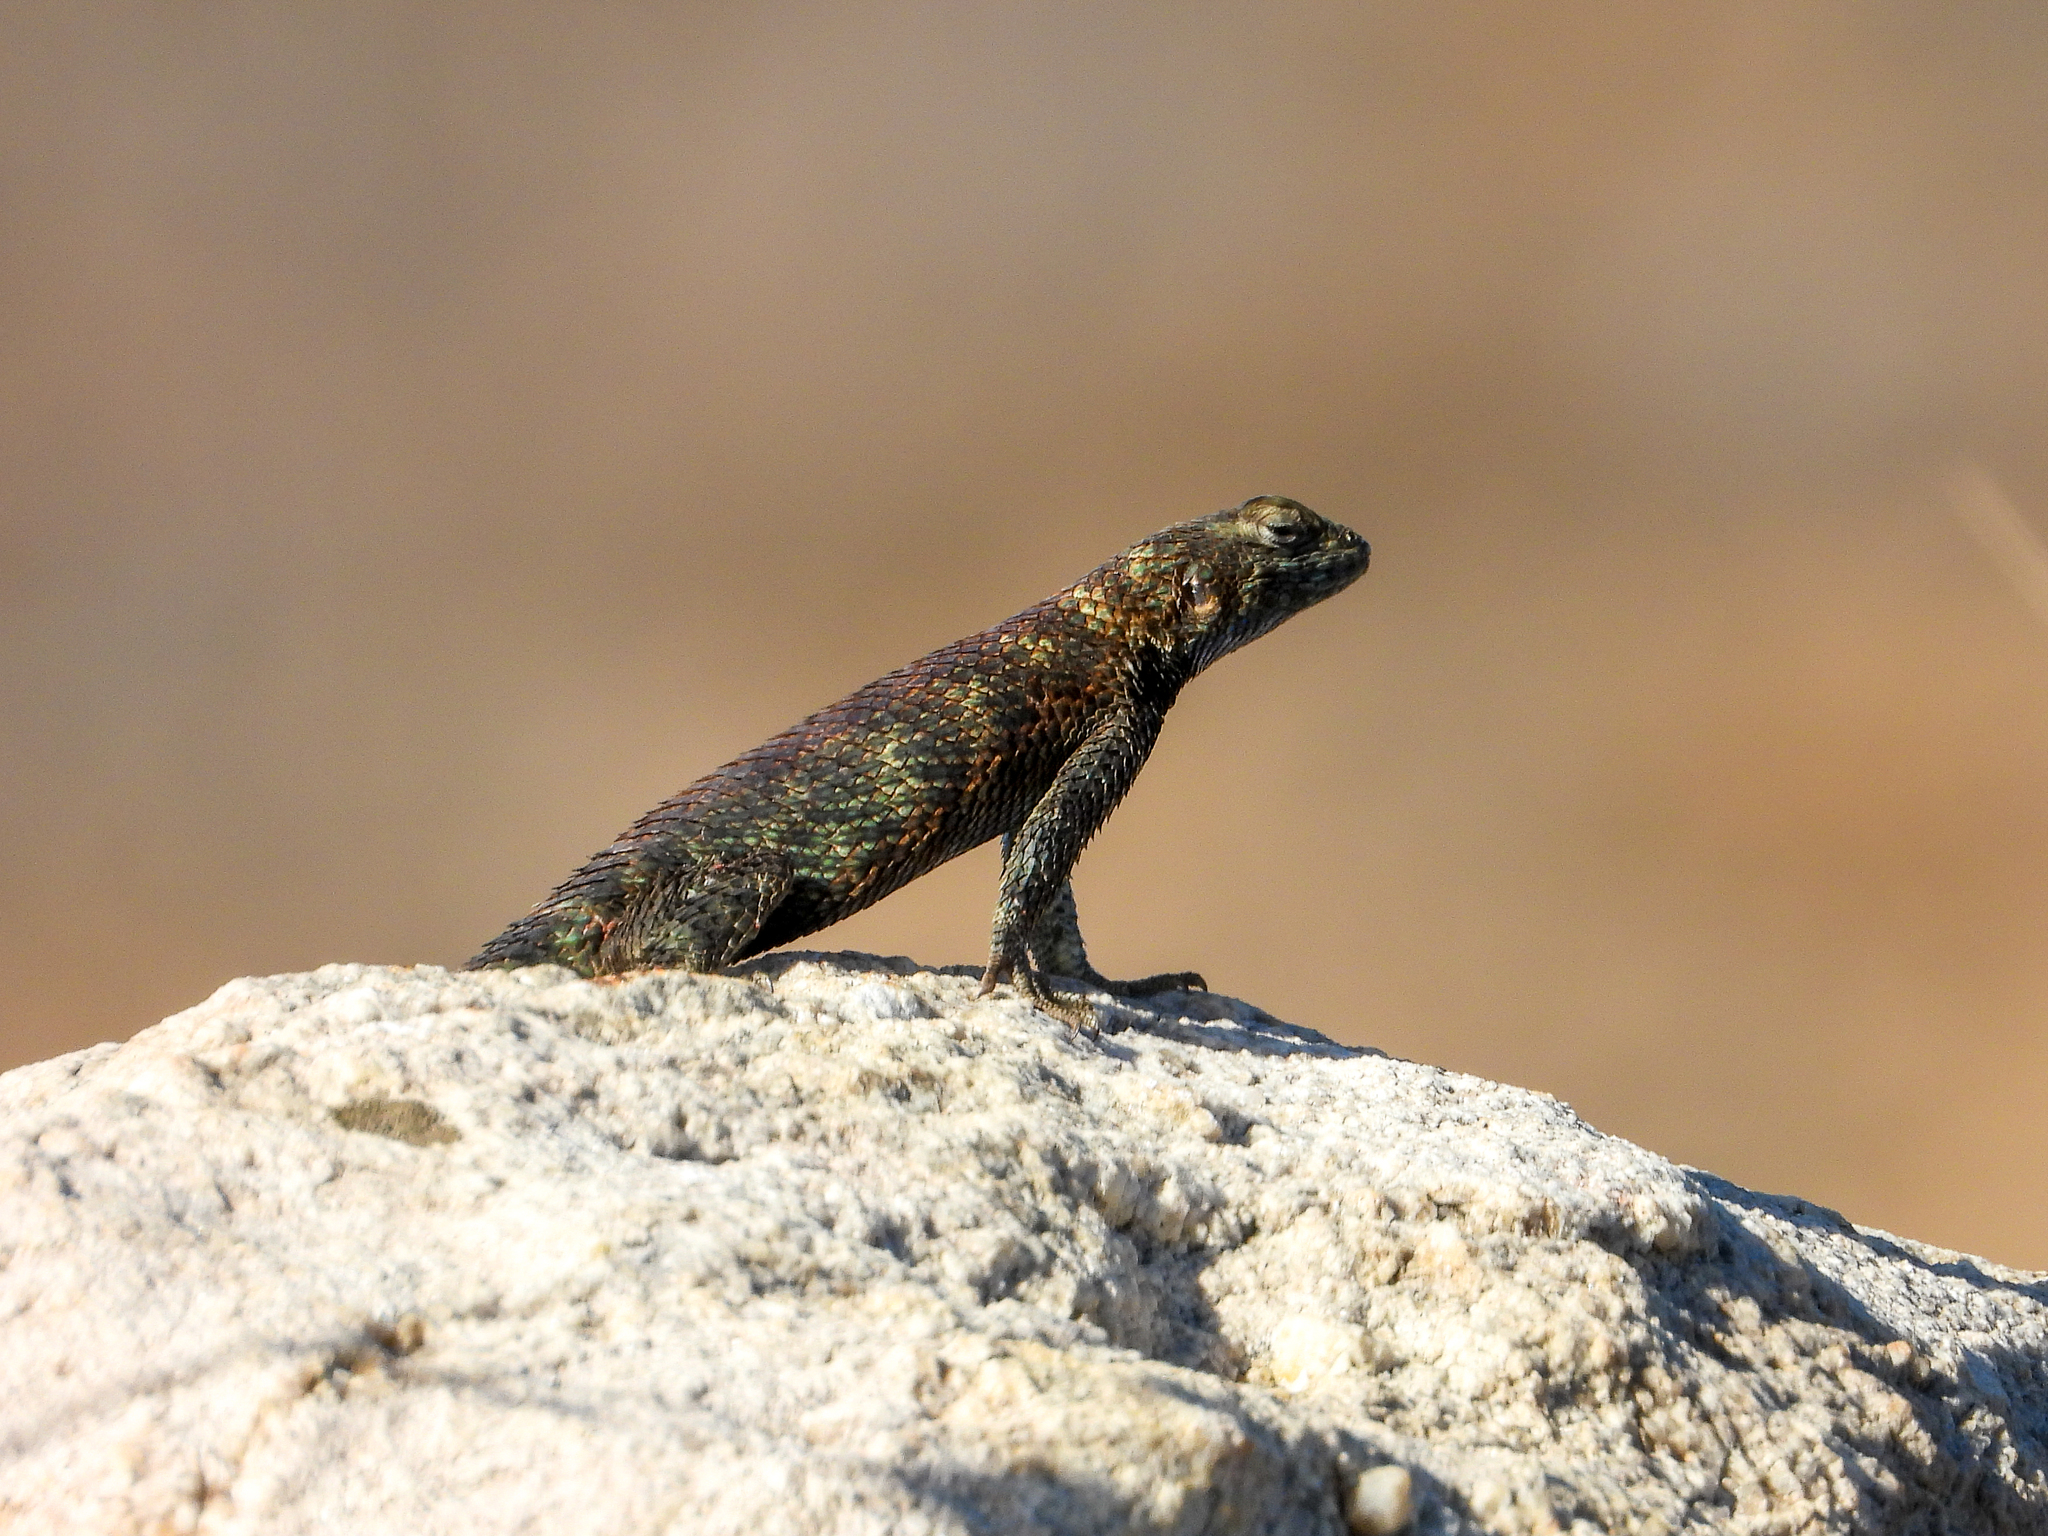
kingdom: Animalia
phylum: Chordata
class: Squamata
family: Phrynosomatidae
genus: Sceloporus
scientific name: Sceloporus orcutti
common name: Granite spiny lizard
